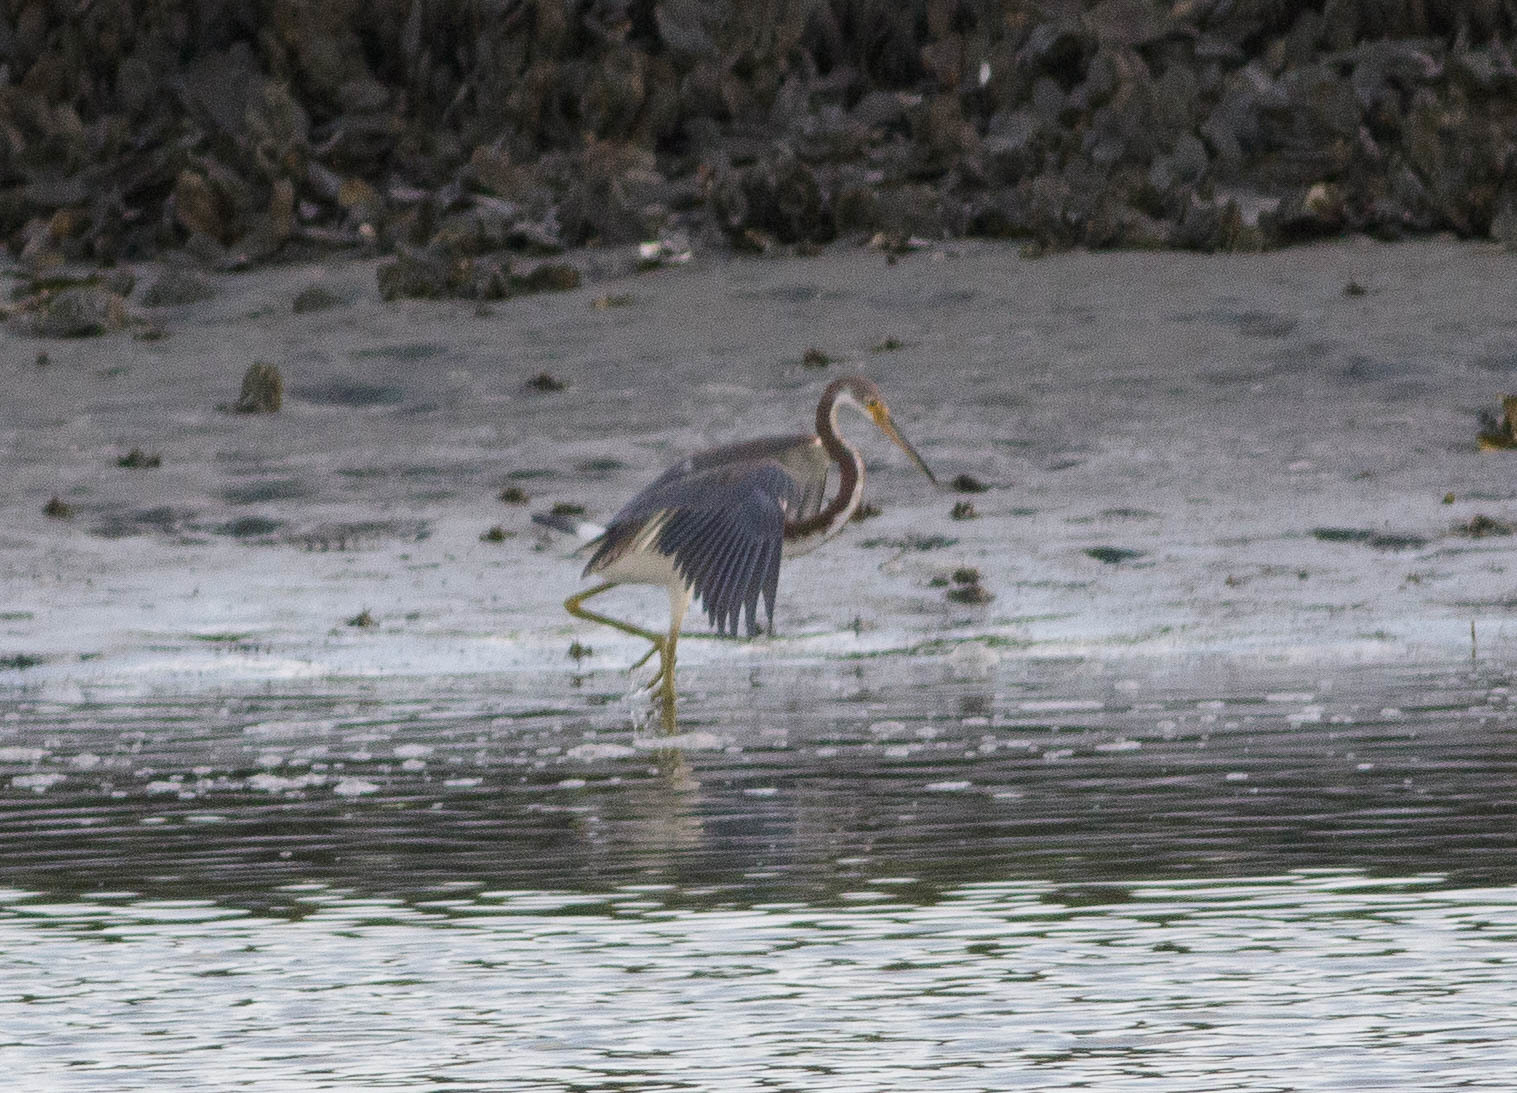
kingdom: Animalia
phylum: Chordata
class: Aves
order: Pelecaniformes
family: Ardeidae
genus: Egretta
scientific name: Egretta tricolor
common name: Tricolored heron
